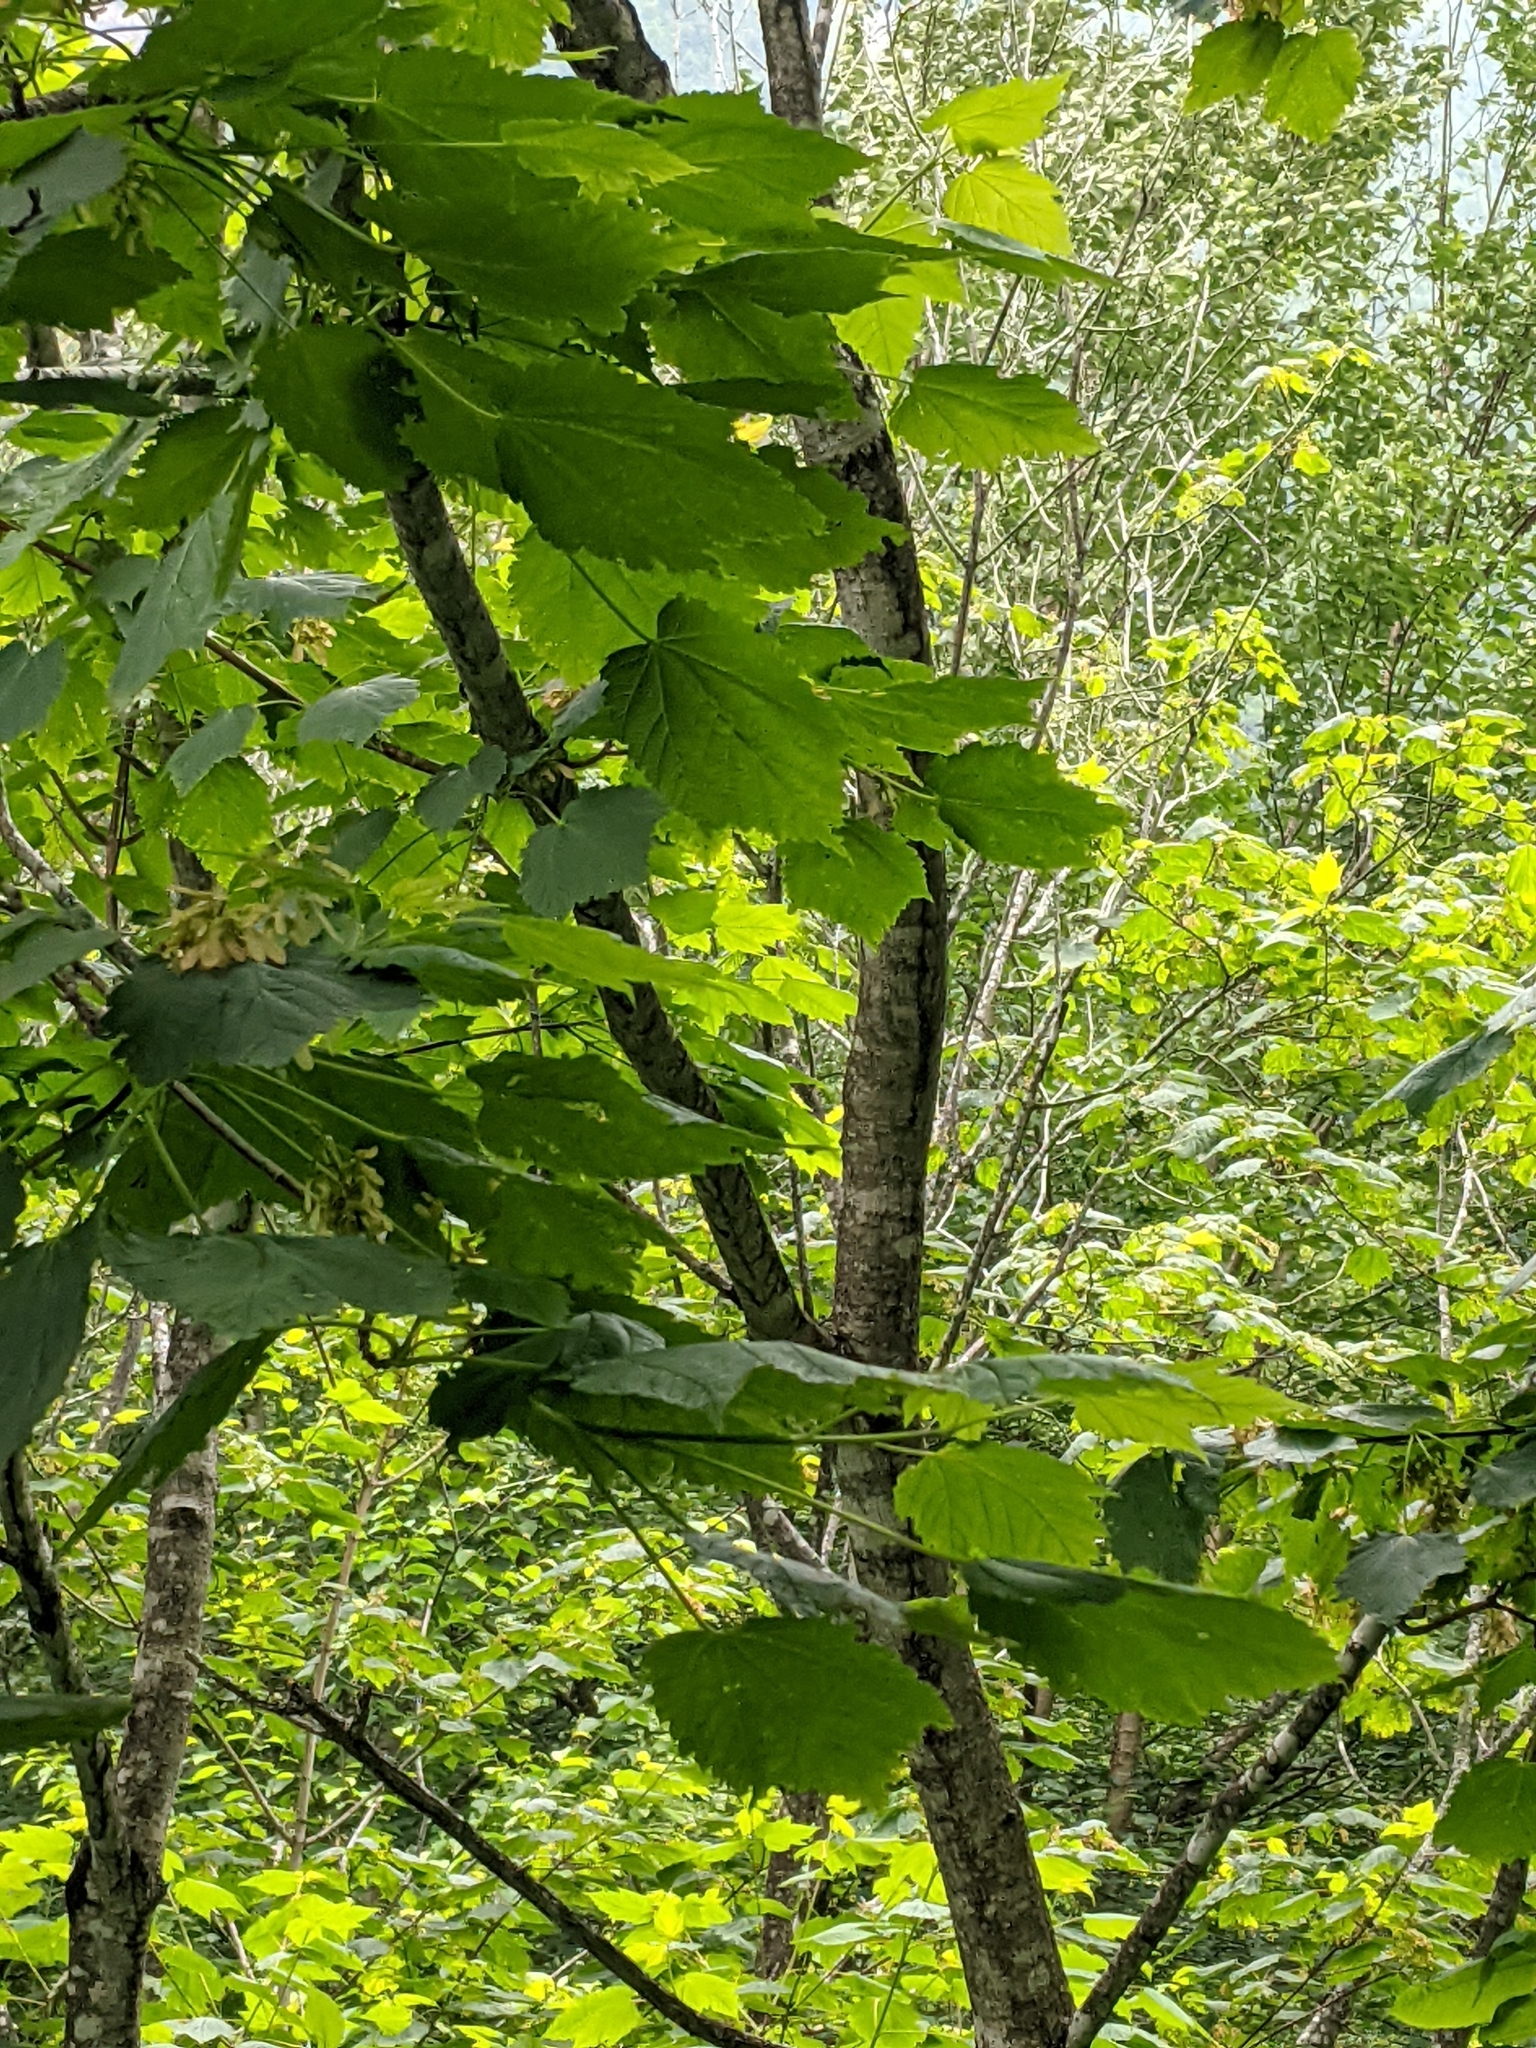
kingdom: Plantae
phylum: Tracheophyta
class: Magnoliopsida
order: Sapindales
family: Sapindaceae
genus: Acer
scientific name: Acer spicatum
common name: Mountain maple
